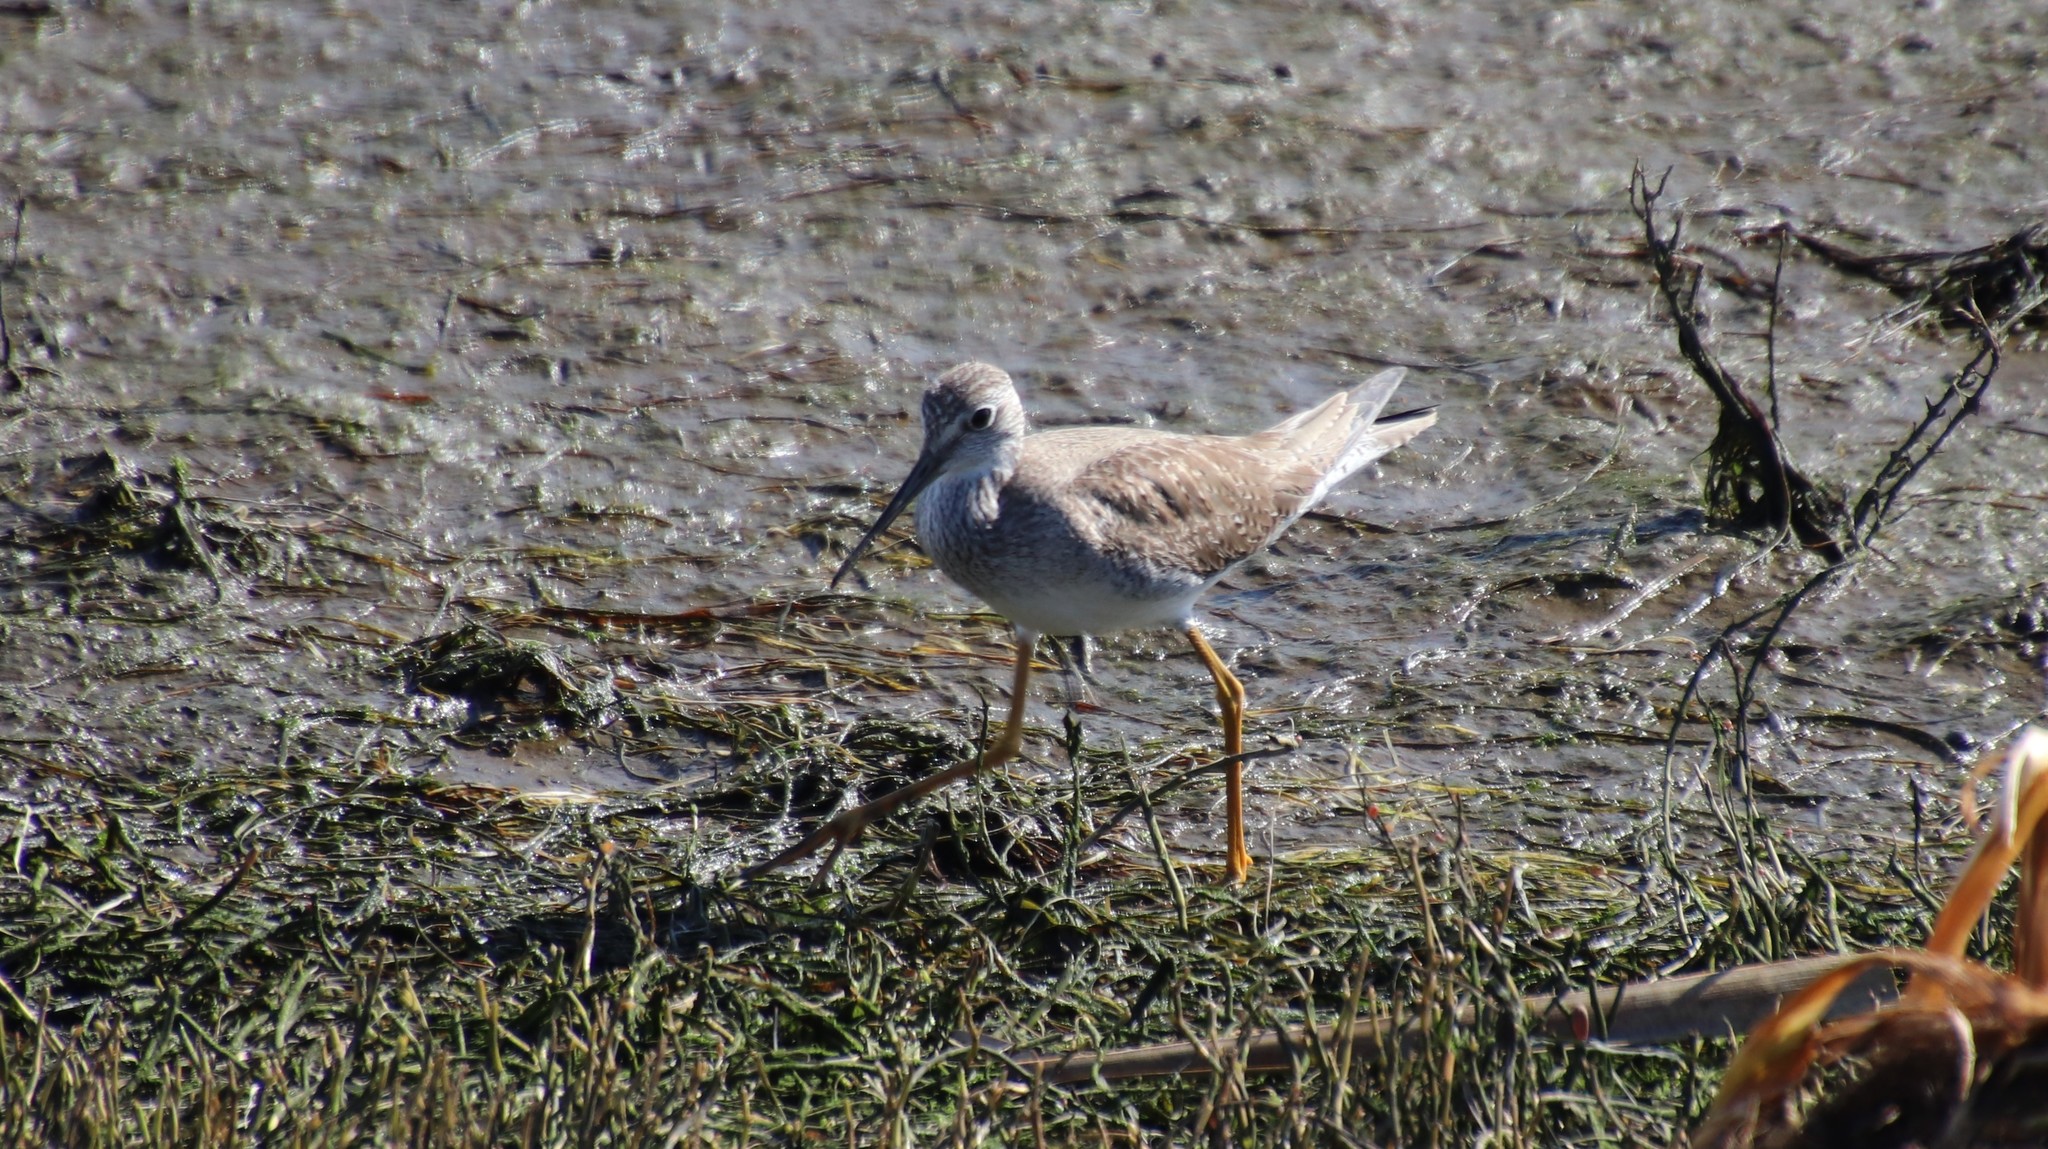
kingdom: Animalia
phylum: Chordata
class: Aves
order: Charadriiformes
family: Scolopacidae
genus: Tringa
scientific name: Tringa melanoleuca
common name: Greater yellowlegs
